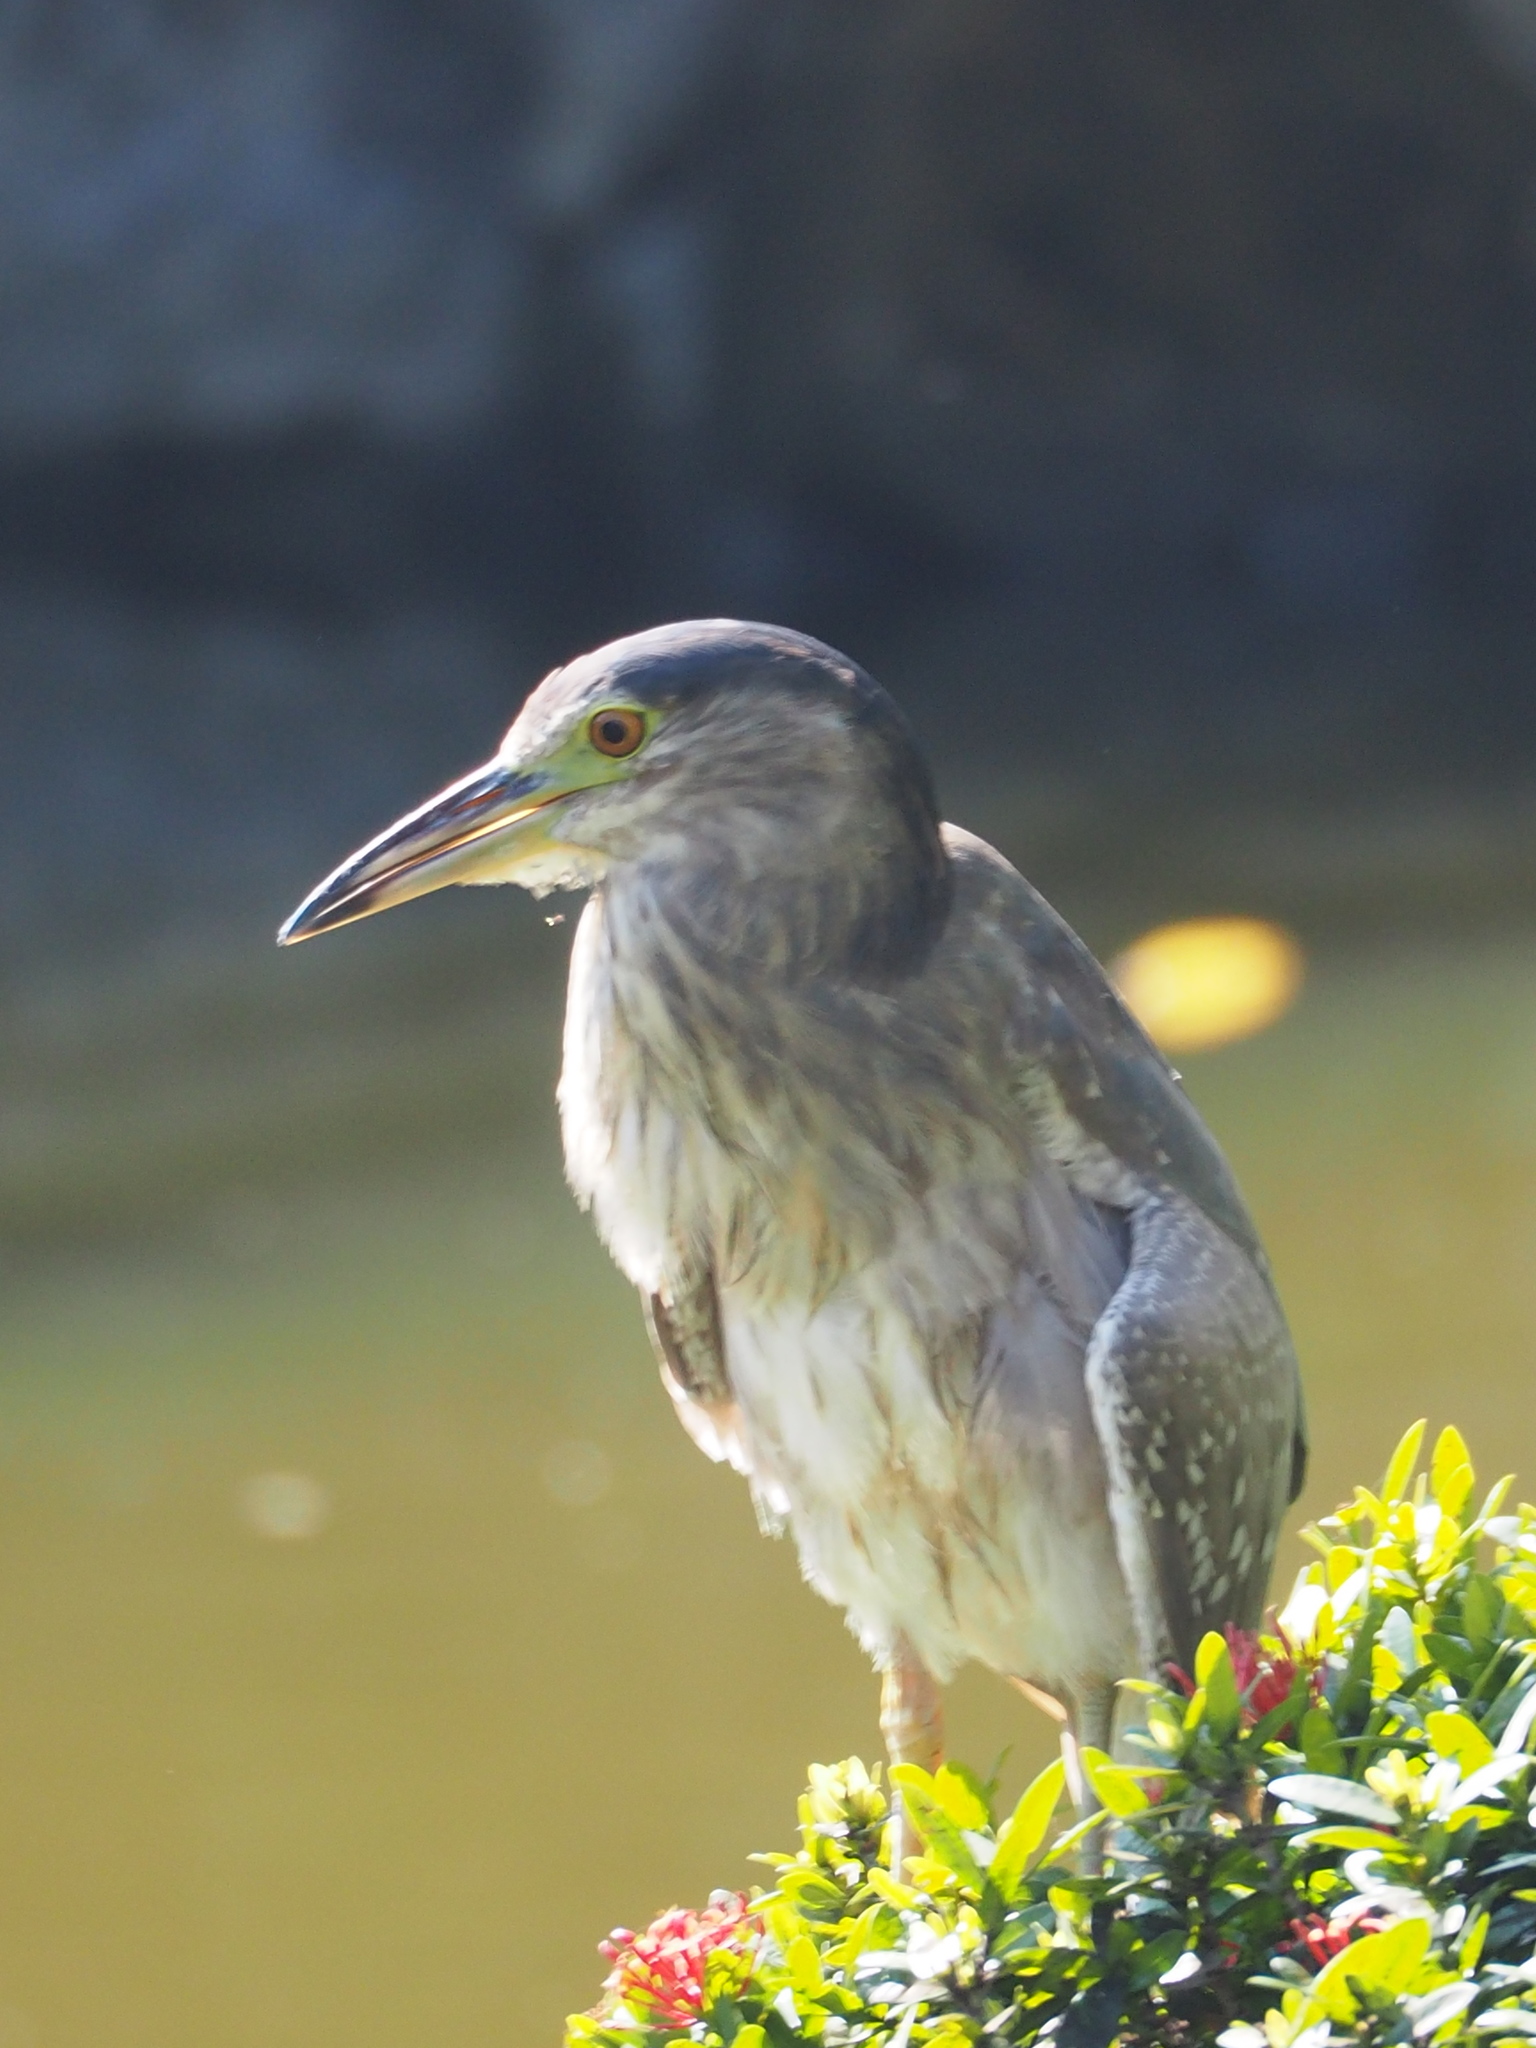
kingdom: Animalia
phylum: Chordata
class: Aves
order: Pelecaniformes
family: Ardeidae
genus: Nycticorax
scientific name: Nycticorax nycticorax
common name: Black-crowned night heron
